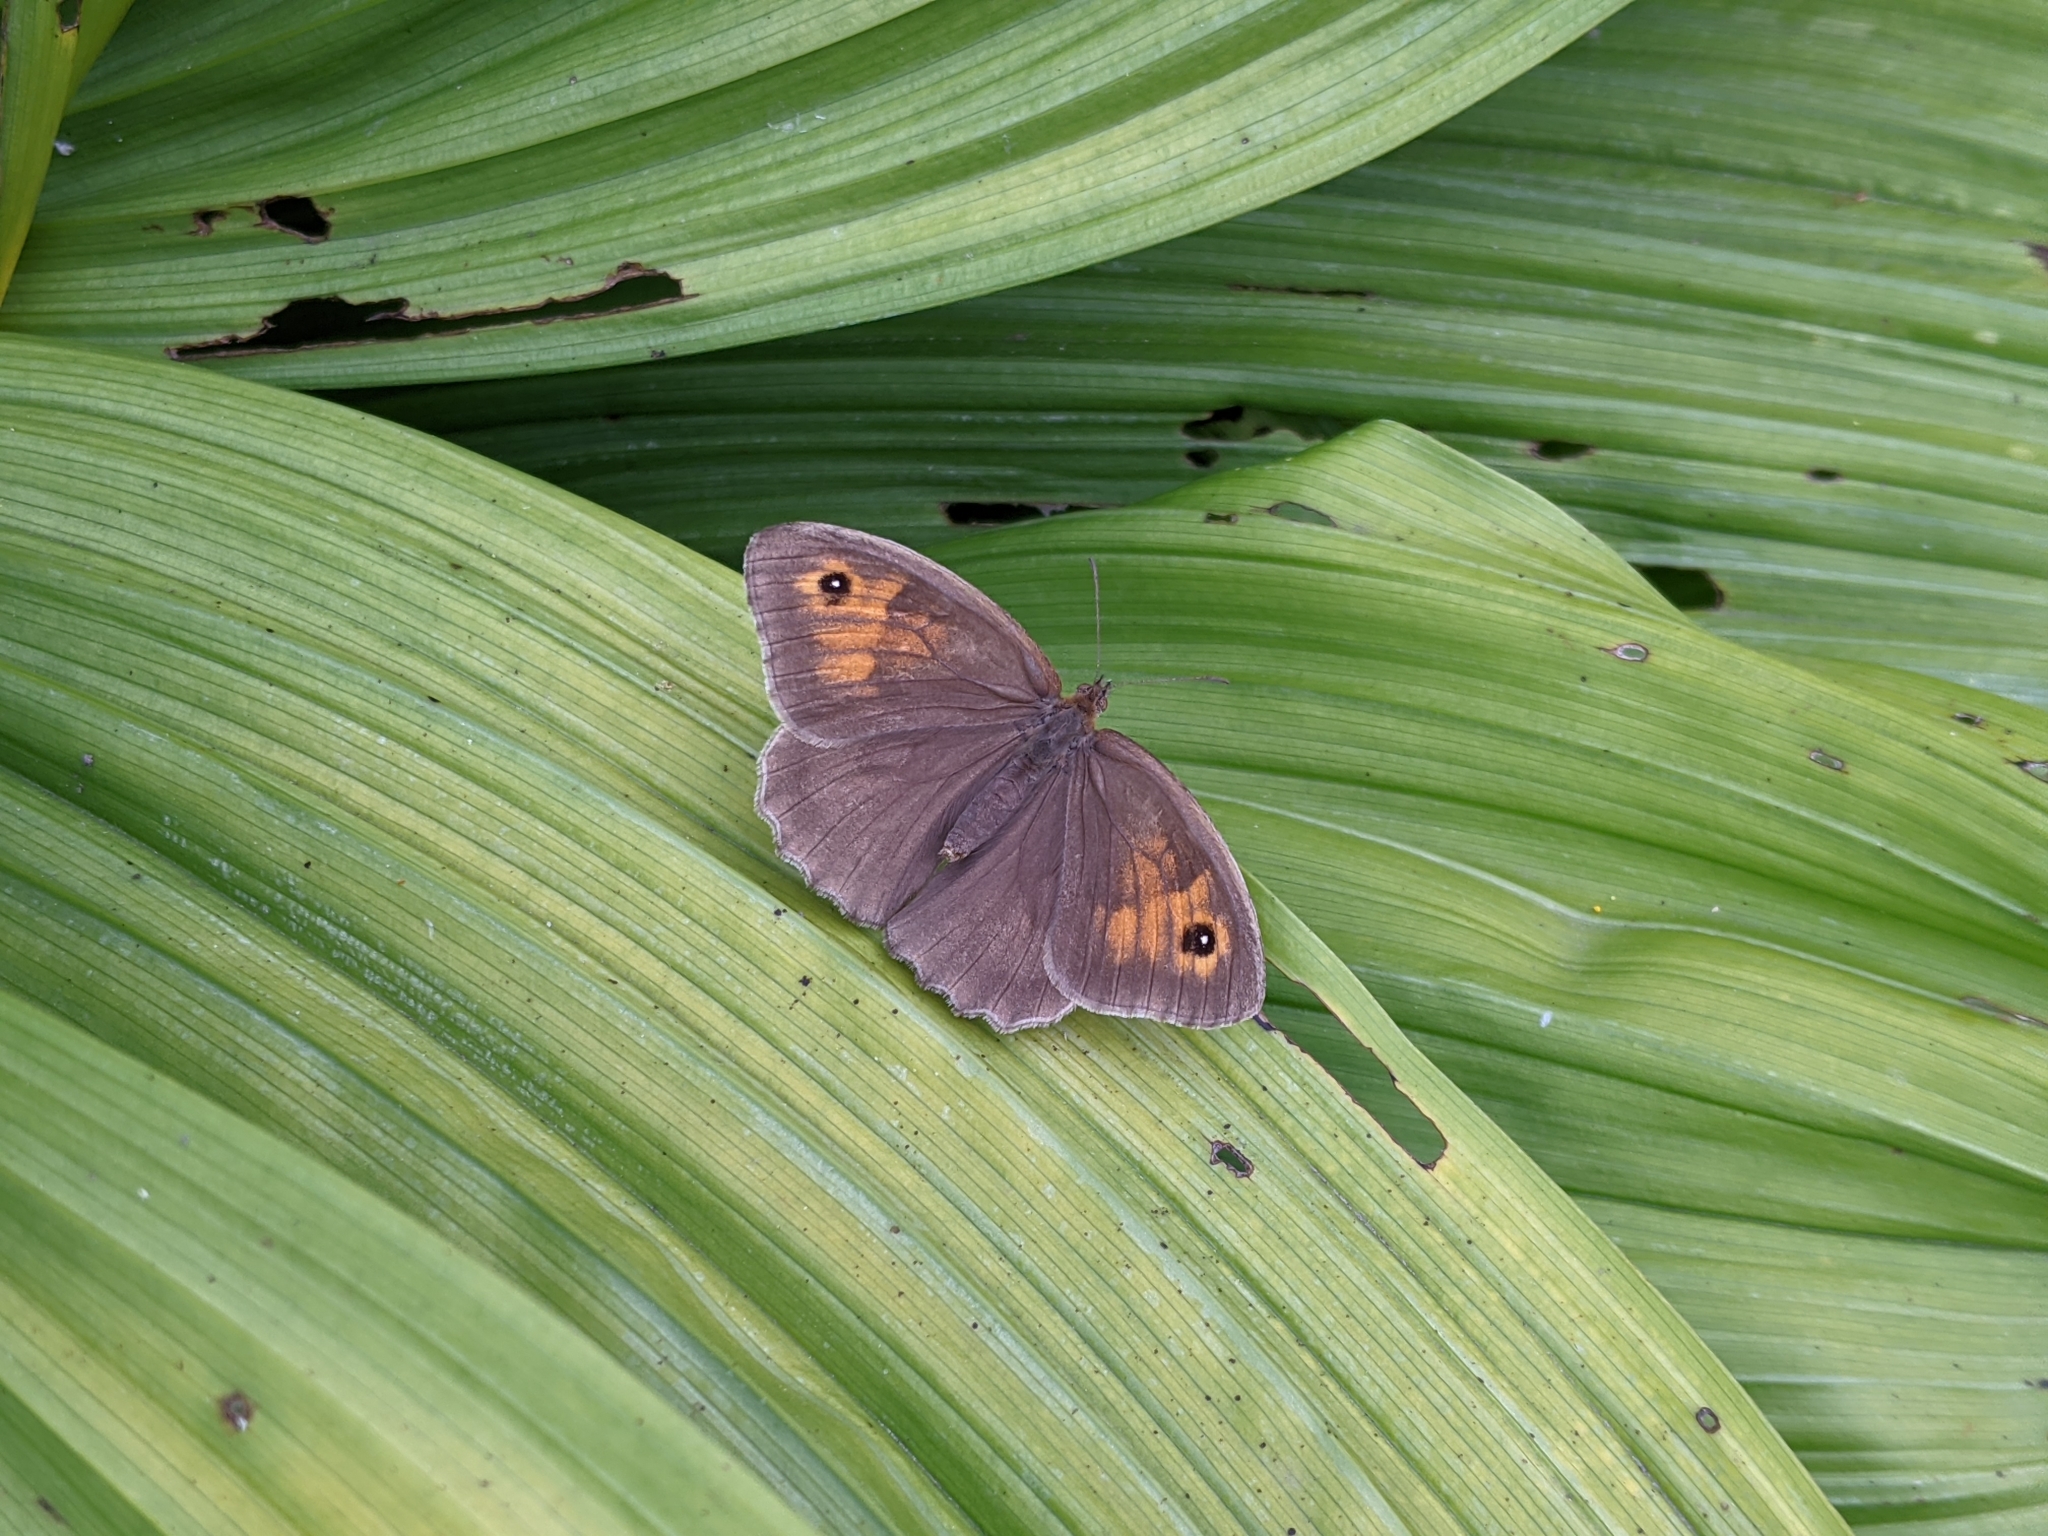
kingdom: Animalia
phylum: Arthropoda
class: Insecta
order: Lepidoptera
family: Nymphalidae
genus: Maniola
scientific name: Maniola jurtina
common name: Meadow brown
